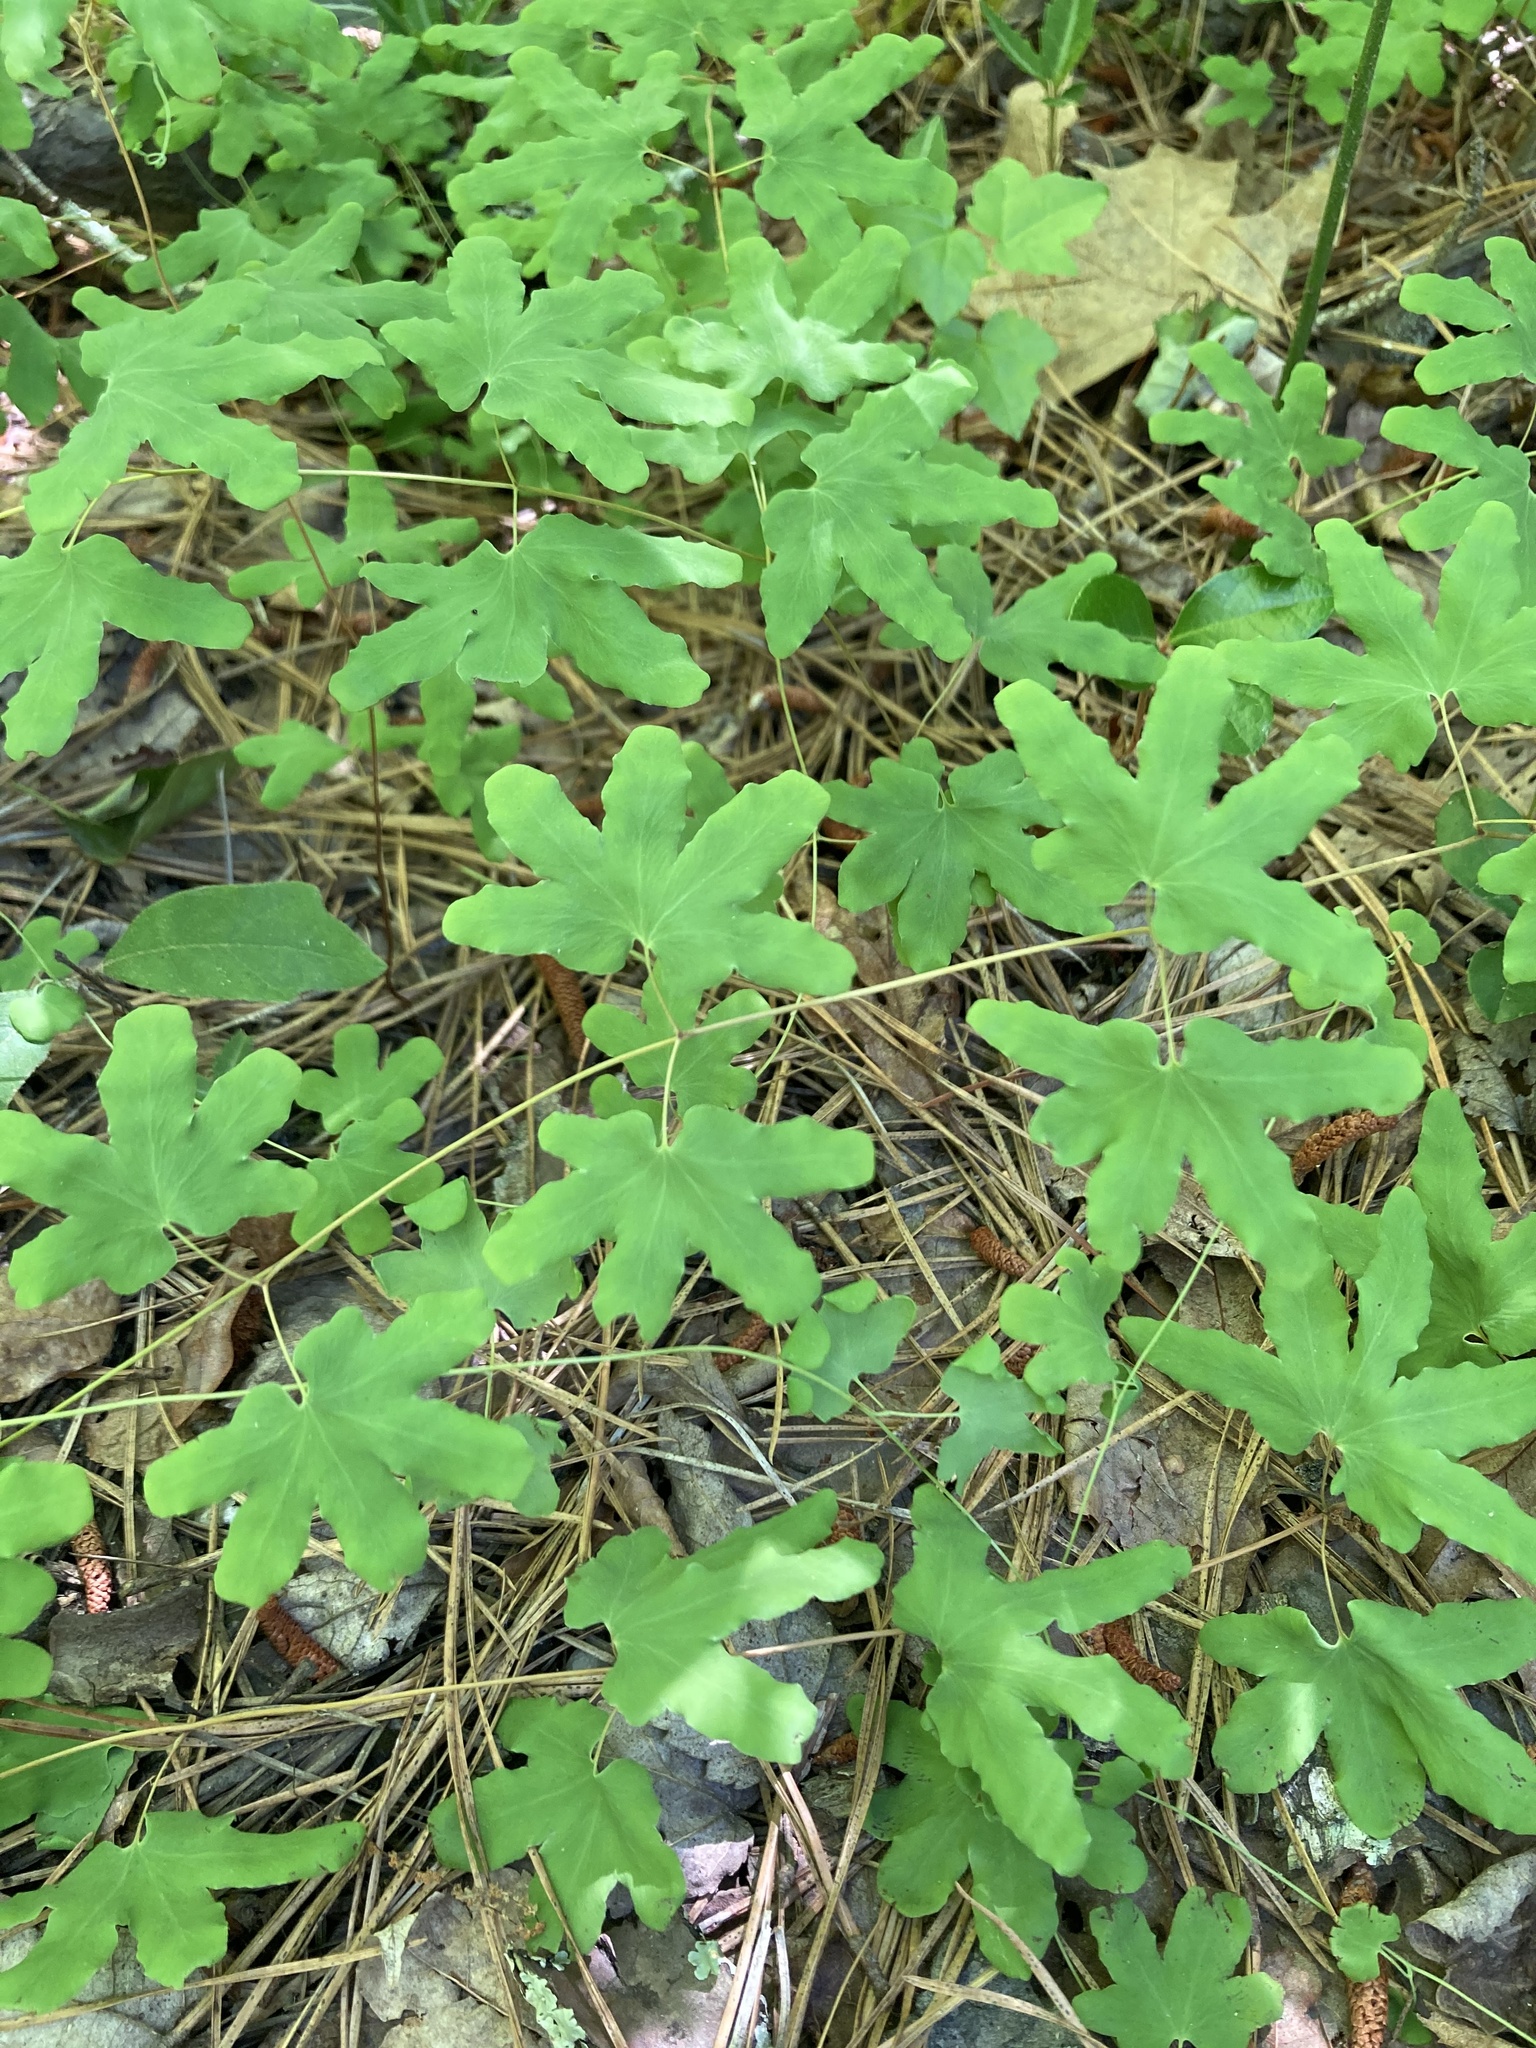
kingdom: Plantae
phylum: Tracheophyta
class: Polypodiopsida
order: Schizaeales
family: Lygodiaceae
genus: Lygodium
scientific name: Lygodium palmatum
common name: American climbing fern
